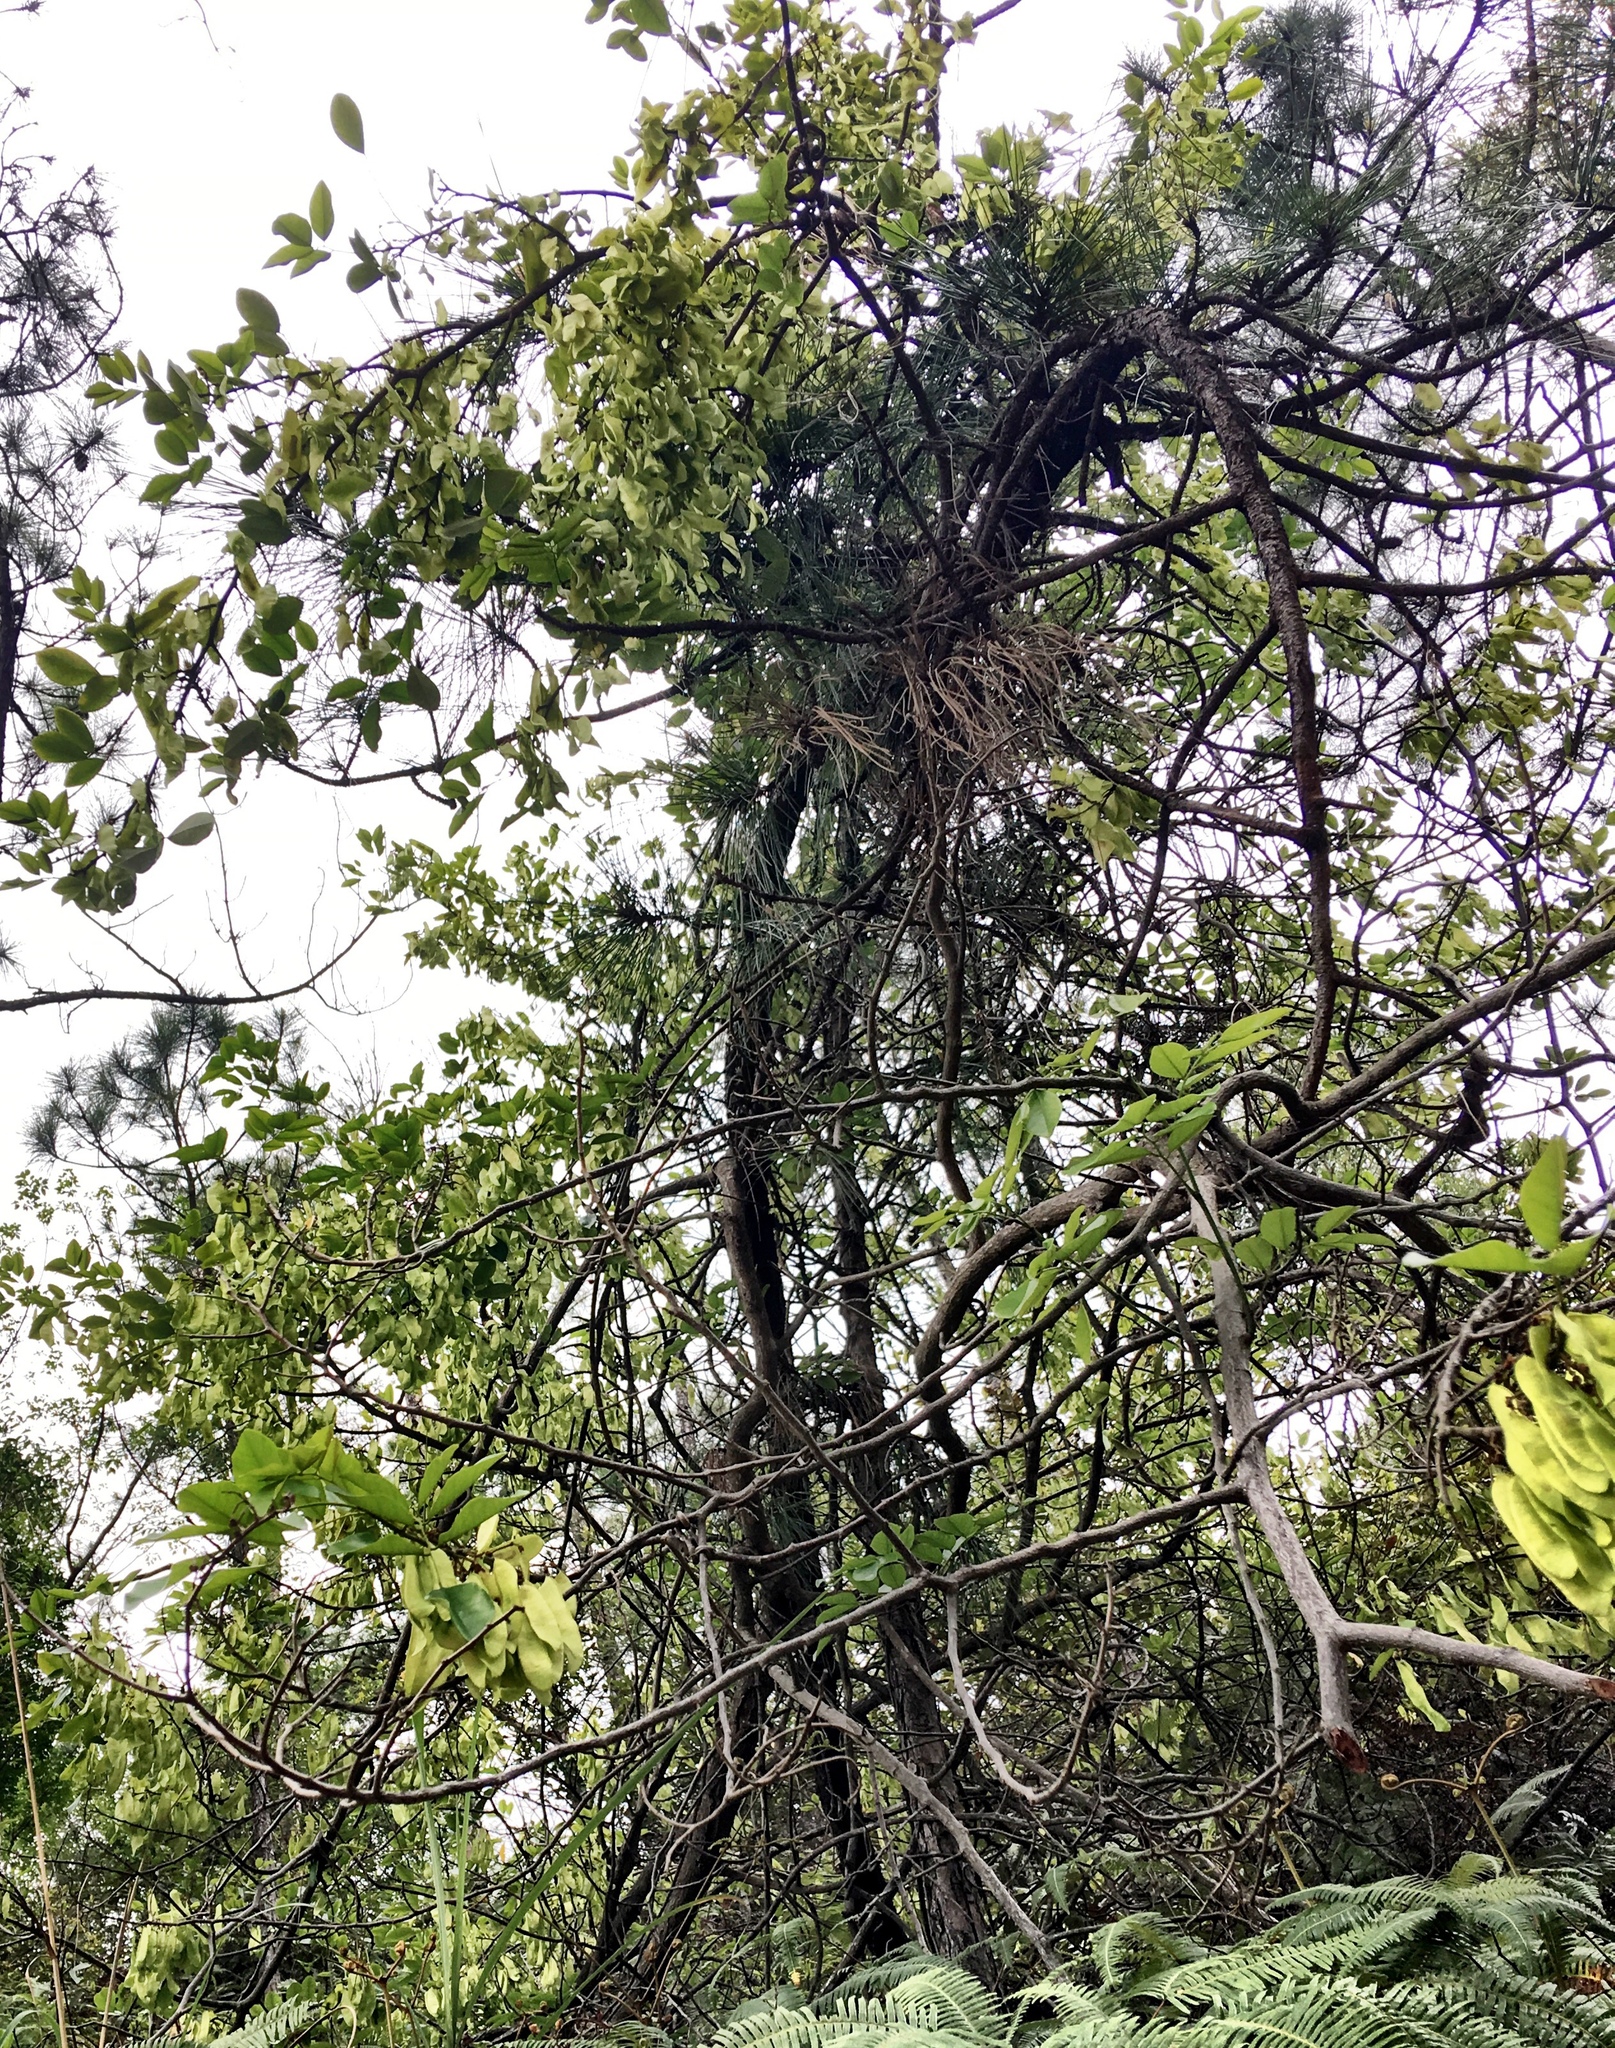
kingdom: Plantae
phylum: Tracheophyta
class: Magnoliopsida
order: Fabales
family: Fabaceae
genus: Dalbergia
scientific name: Dalbergia benthamii
